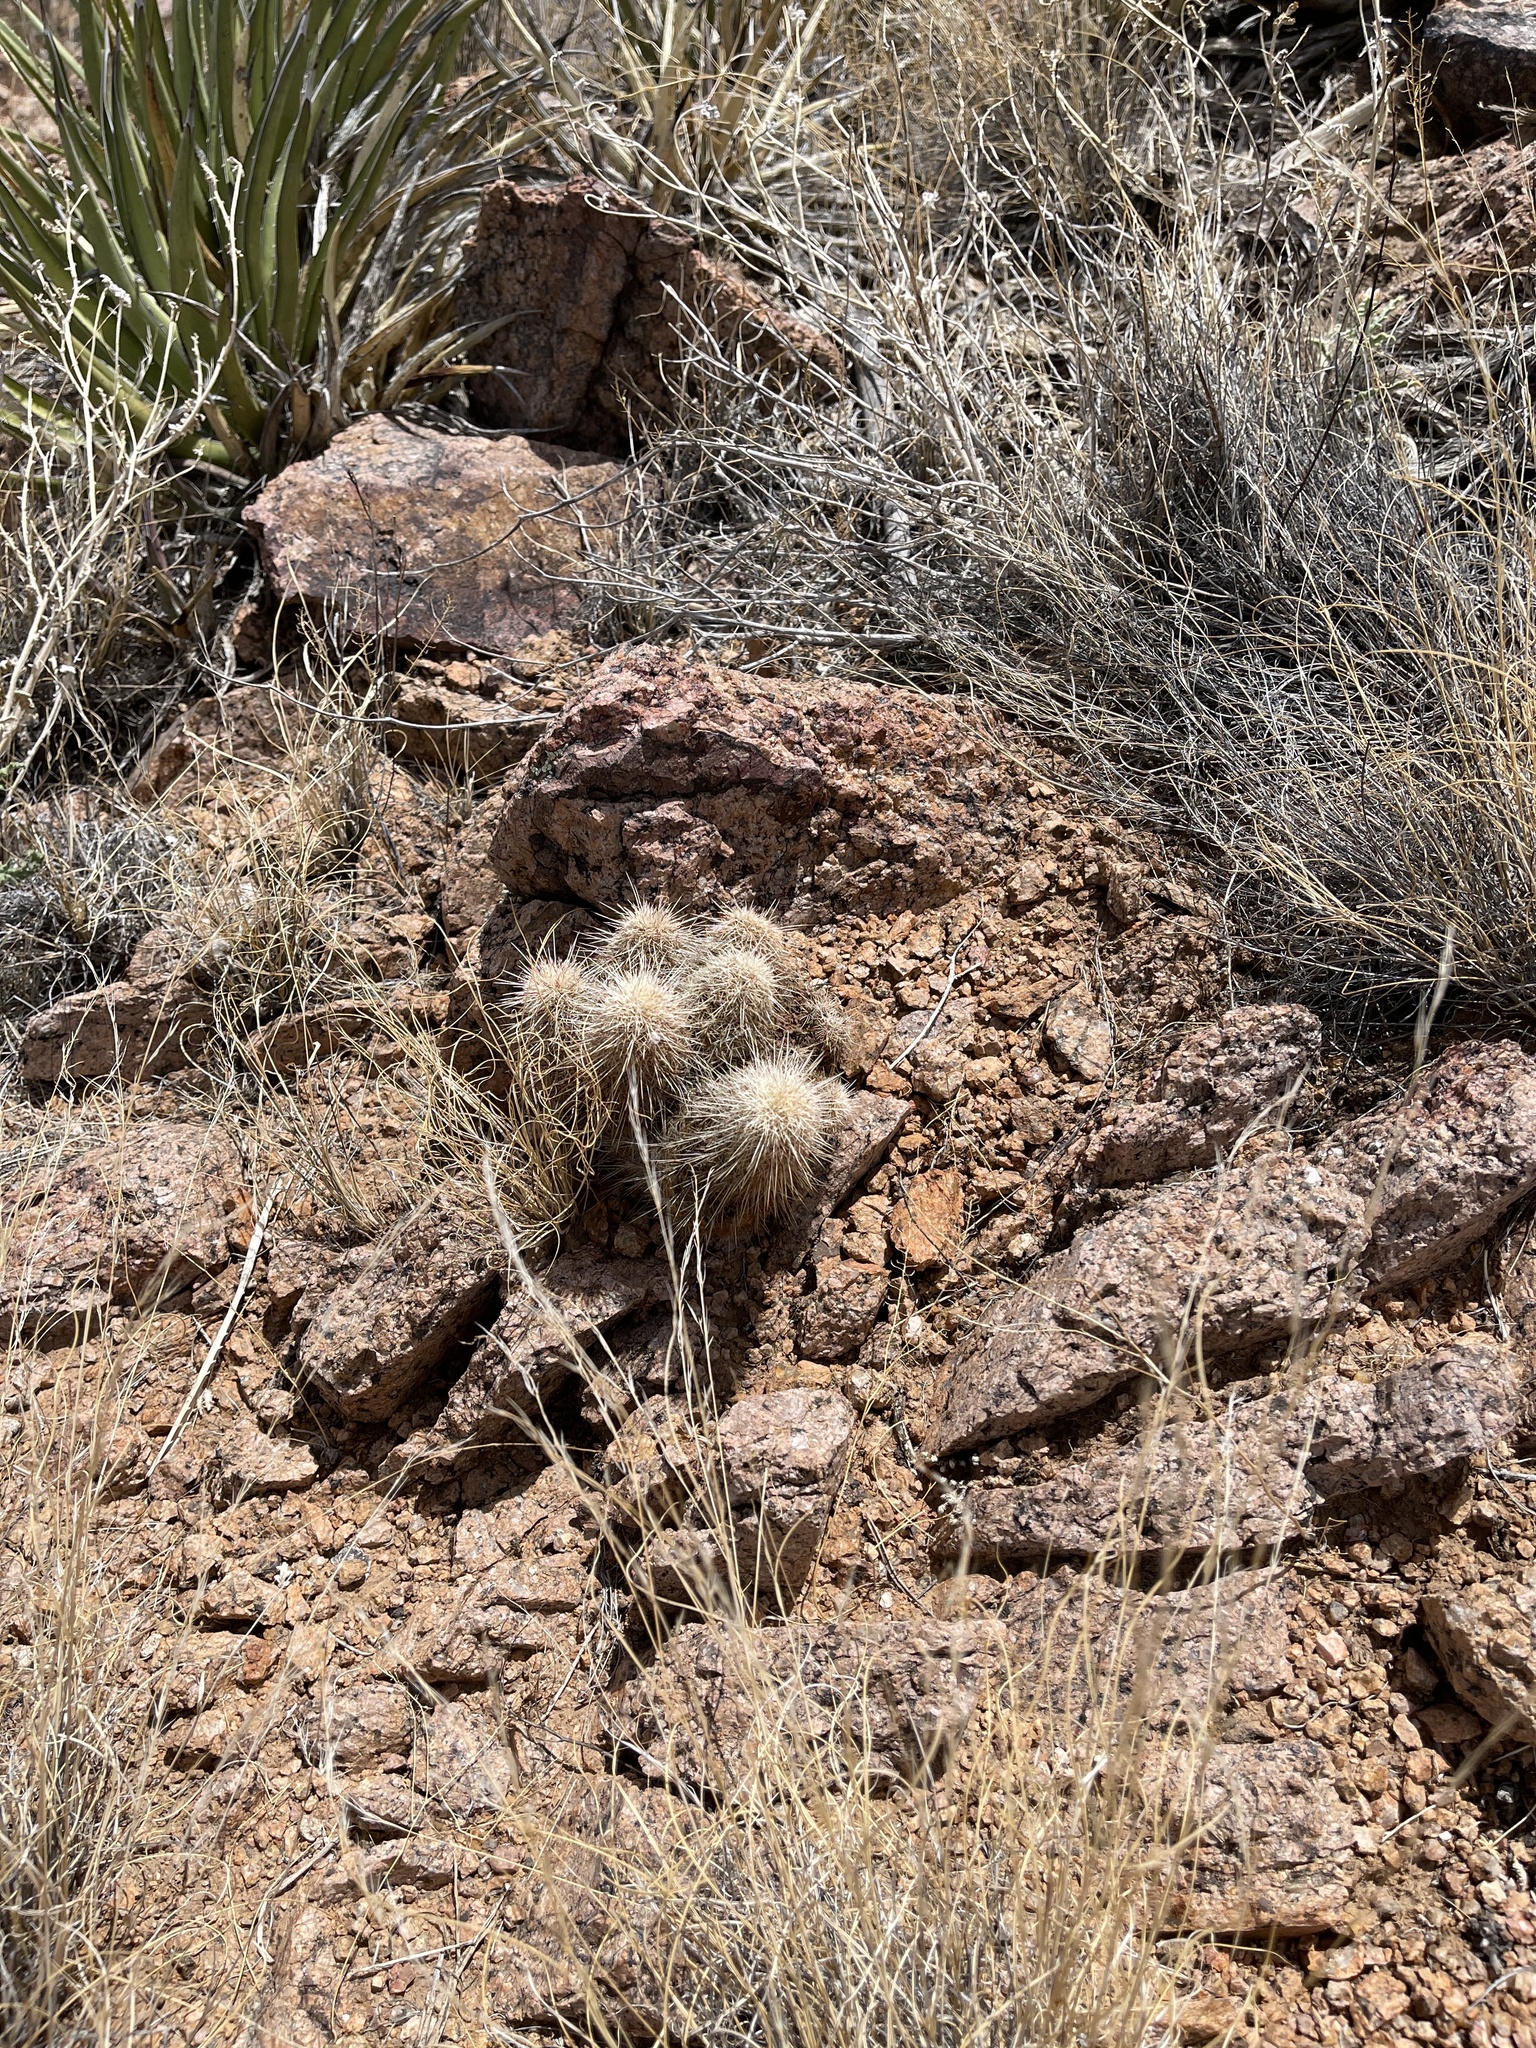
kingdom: Plantae
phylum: Tracheophyta
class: Magnoliopsida
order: Caryophyllales
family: Cactaceae
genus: Echinocereus
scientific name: Echinocereus viridiflorus
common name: Nylon hedgehog cactus
